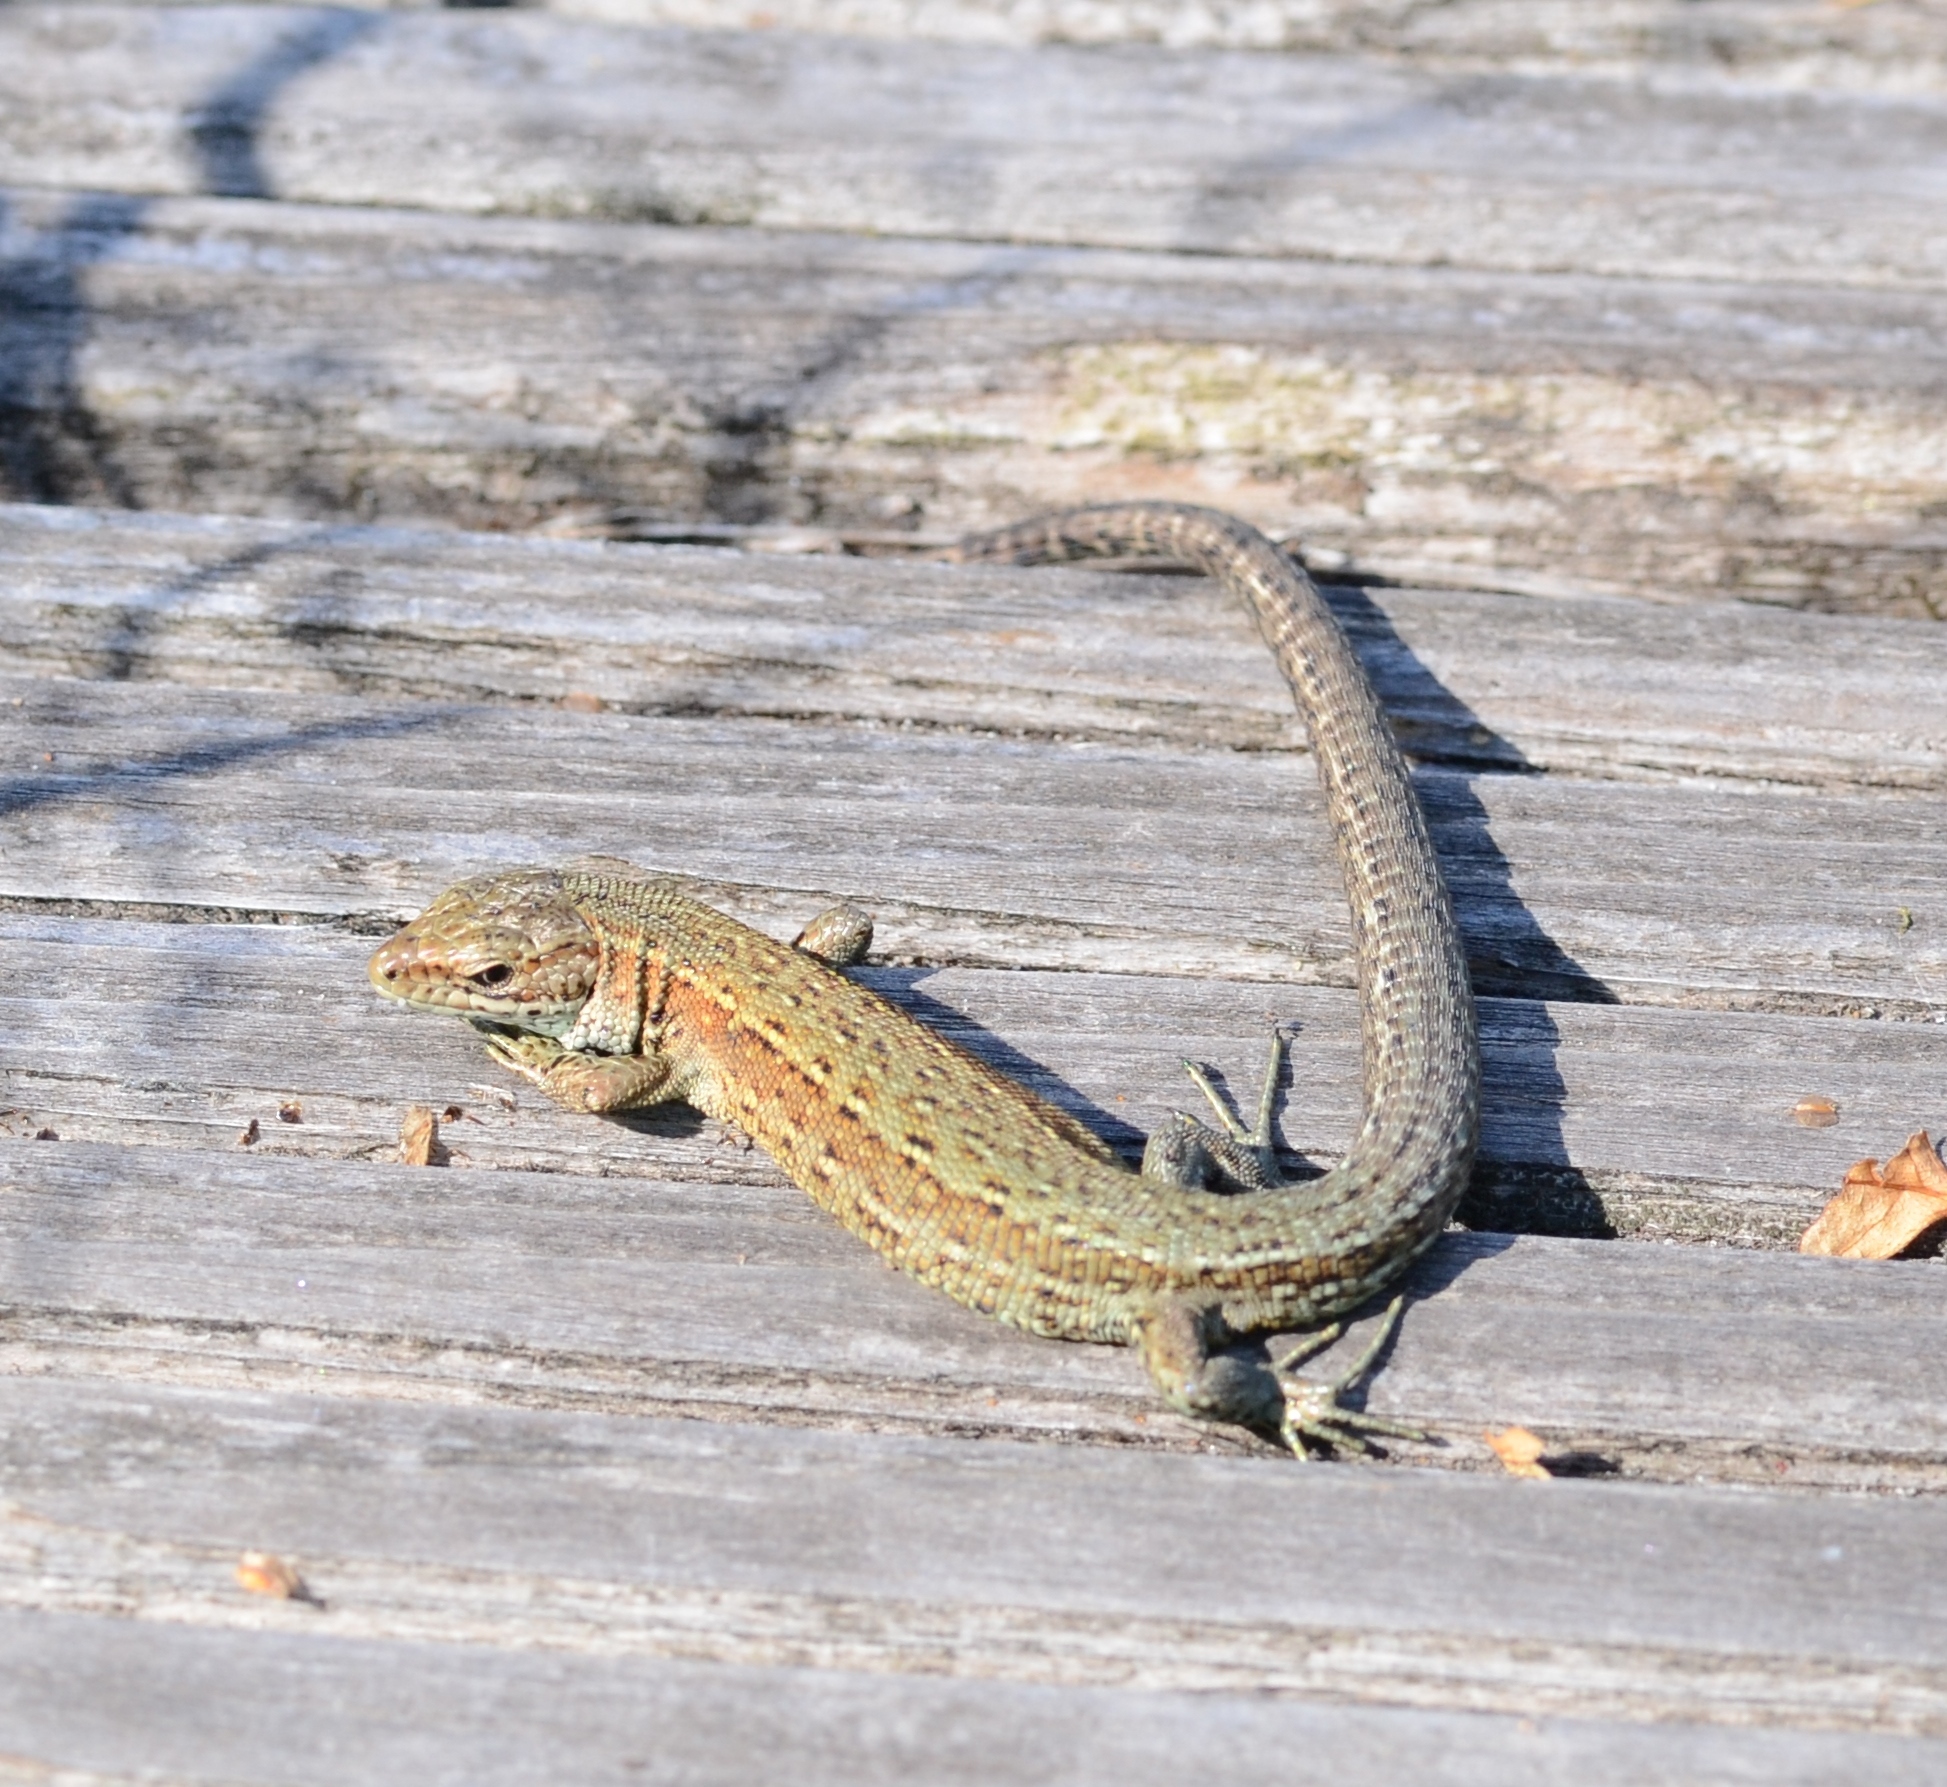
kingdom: Animalia
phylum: Chordata
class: Squamata
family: Lacertidae
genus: Zootoca
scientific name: Zootoca vivipara
